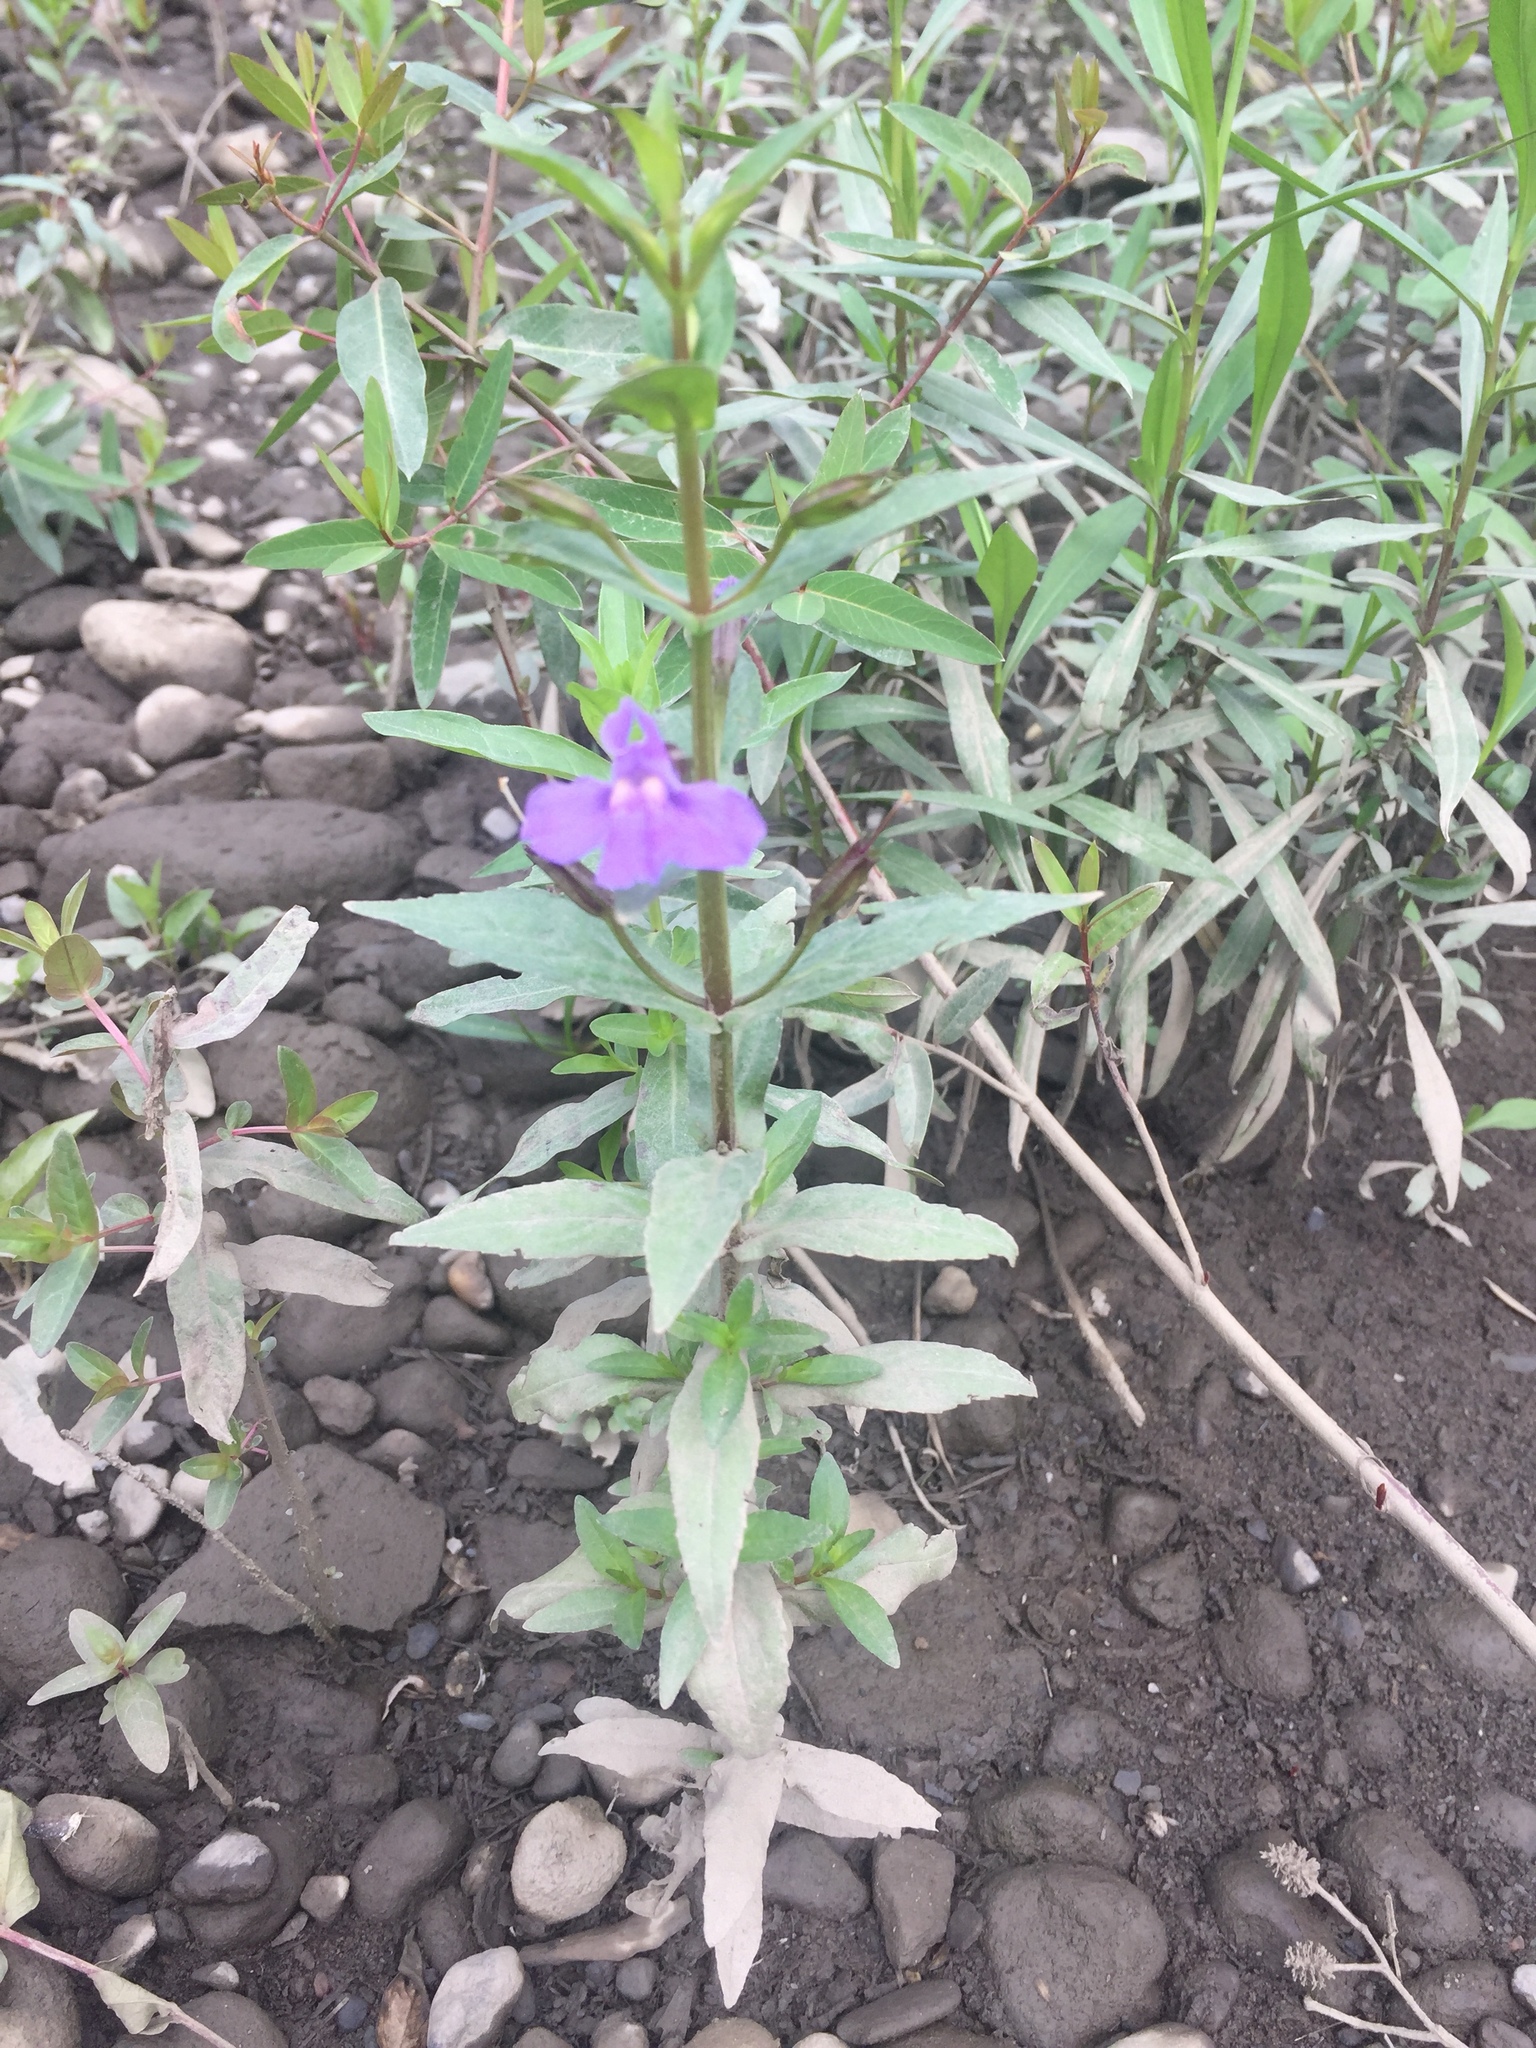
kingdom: Plantae
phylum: Tracheophyta
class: Magnoliopsida
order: Lamiales
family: Phrymaceae
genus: Mimulus
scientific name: Mimulus ringens
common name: Allegheny monkeyflower
